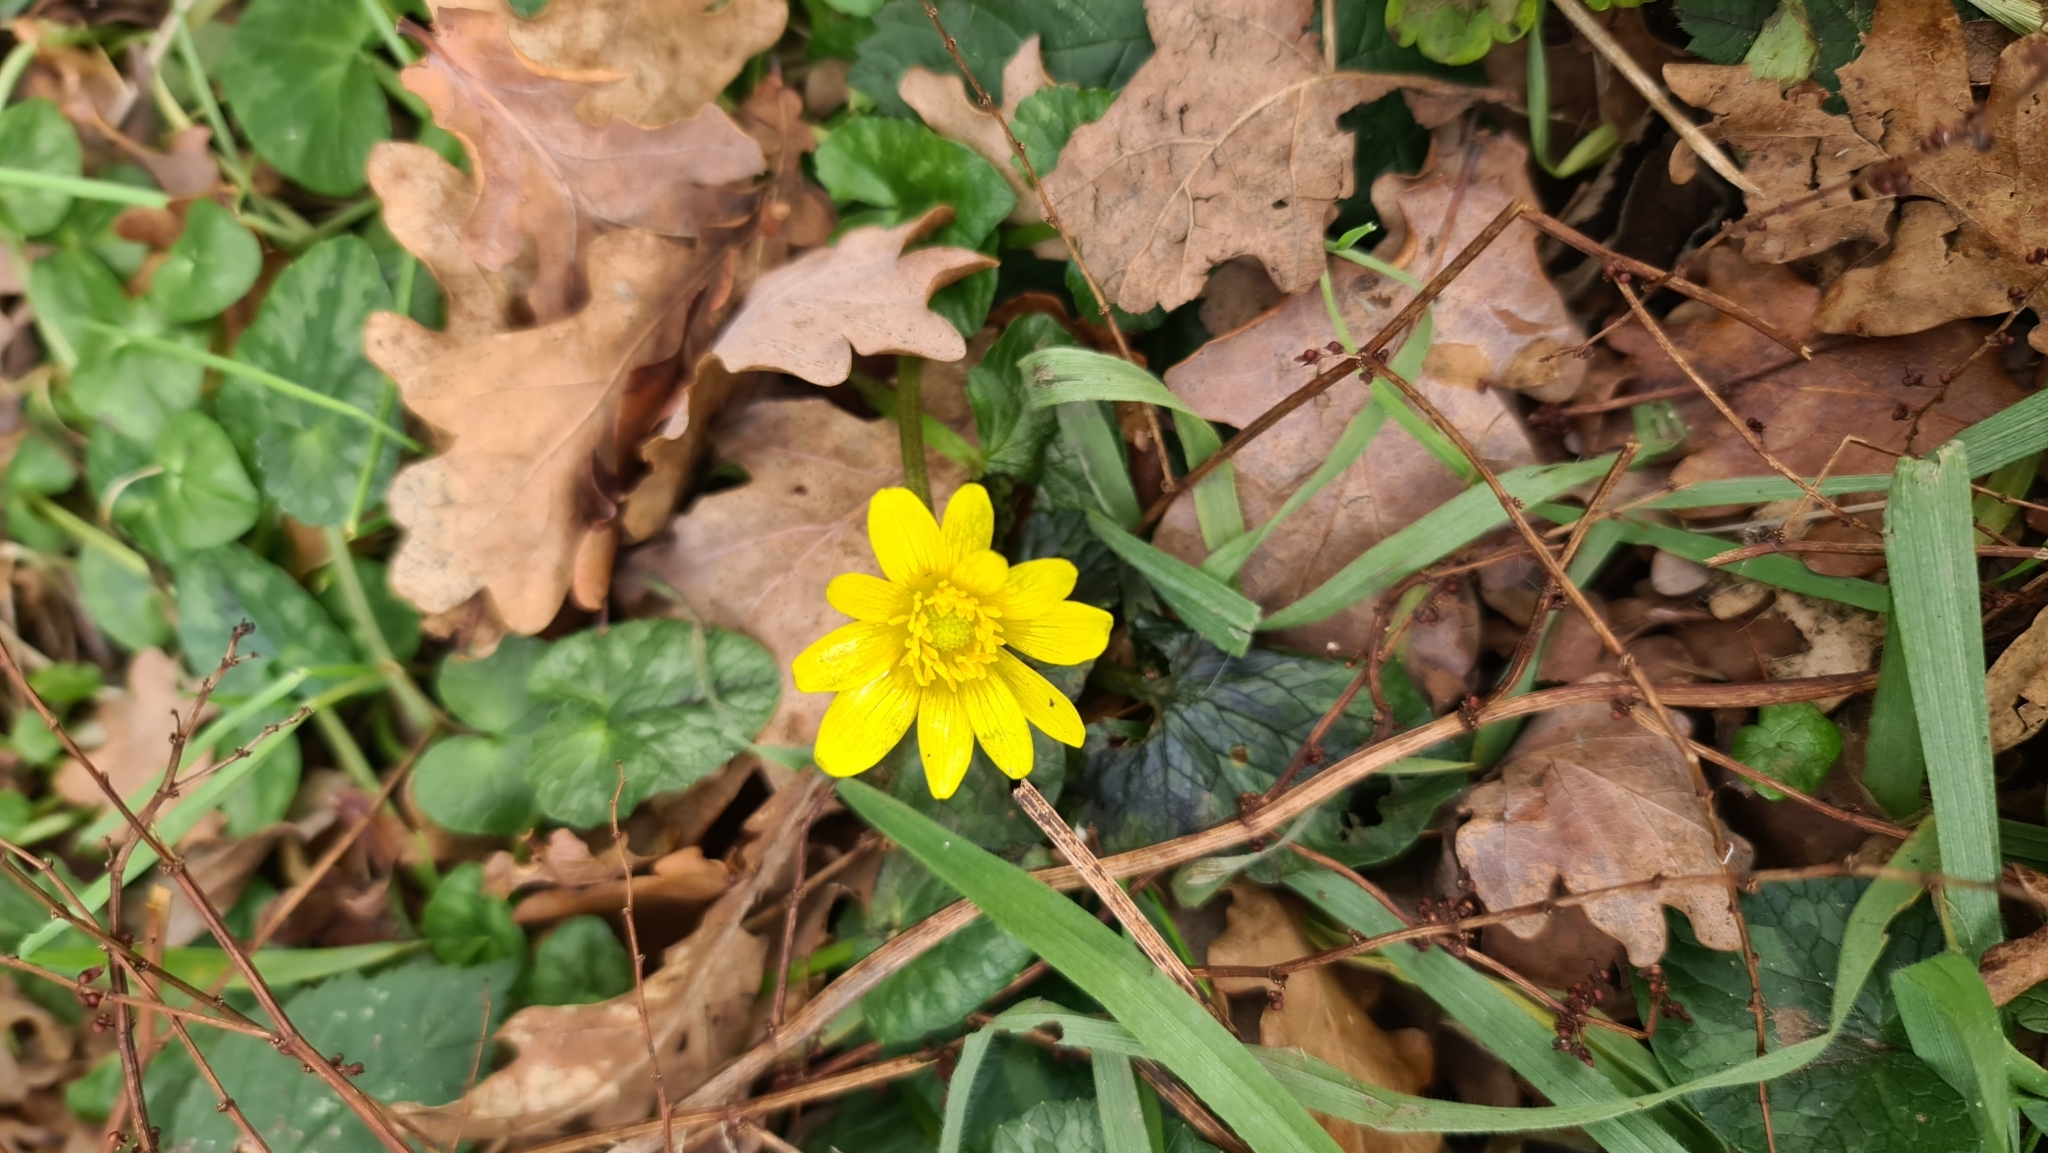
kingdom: Plantae
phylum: Tracheophyta
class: Magnoliopsida
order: Ranunculales
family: Ranunculaceae
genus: Ficaria
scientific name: Ficaria verna
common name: Lesser celandine
